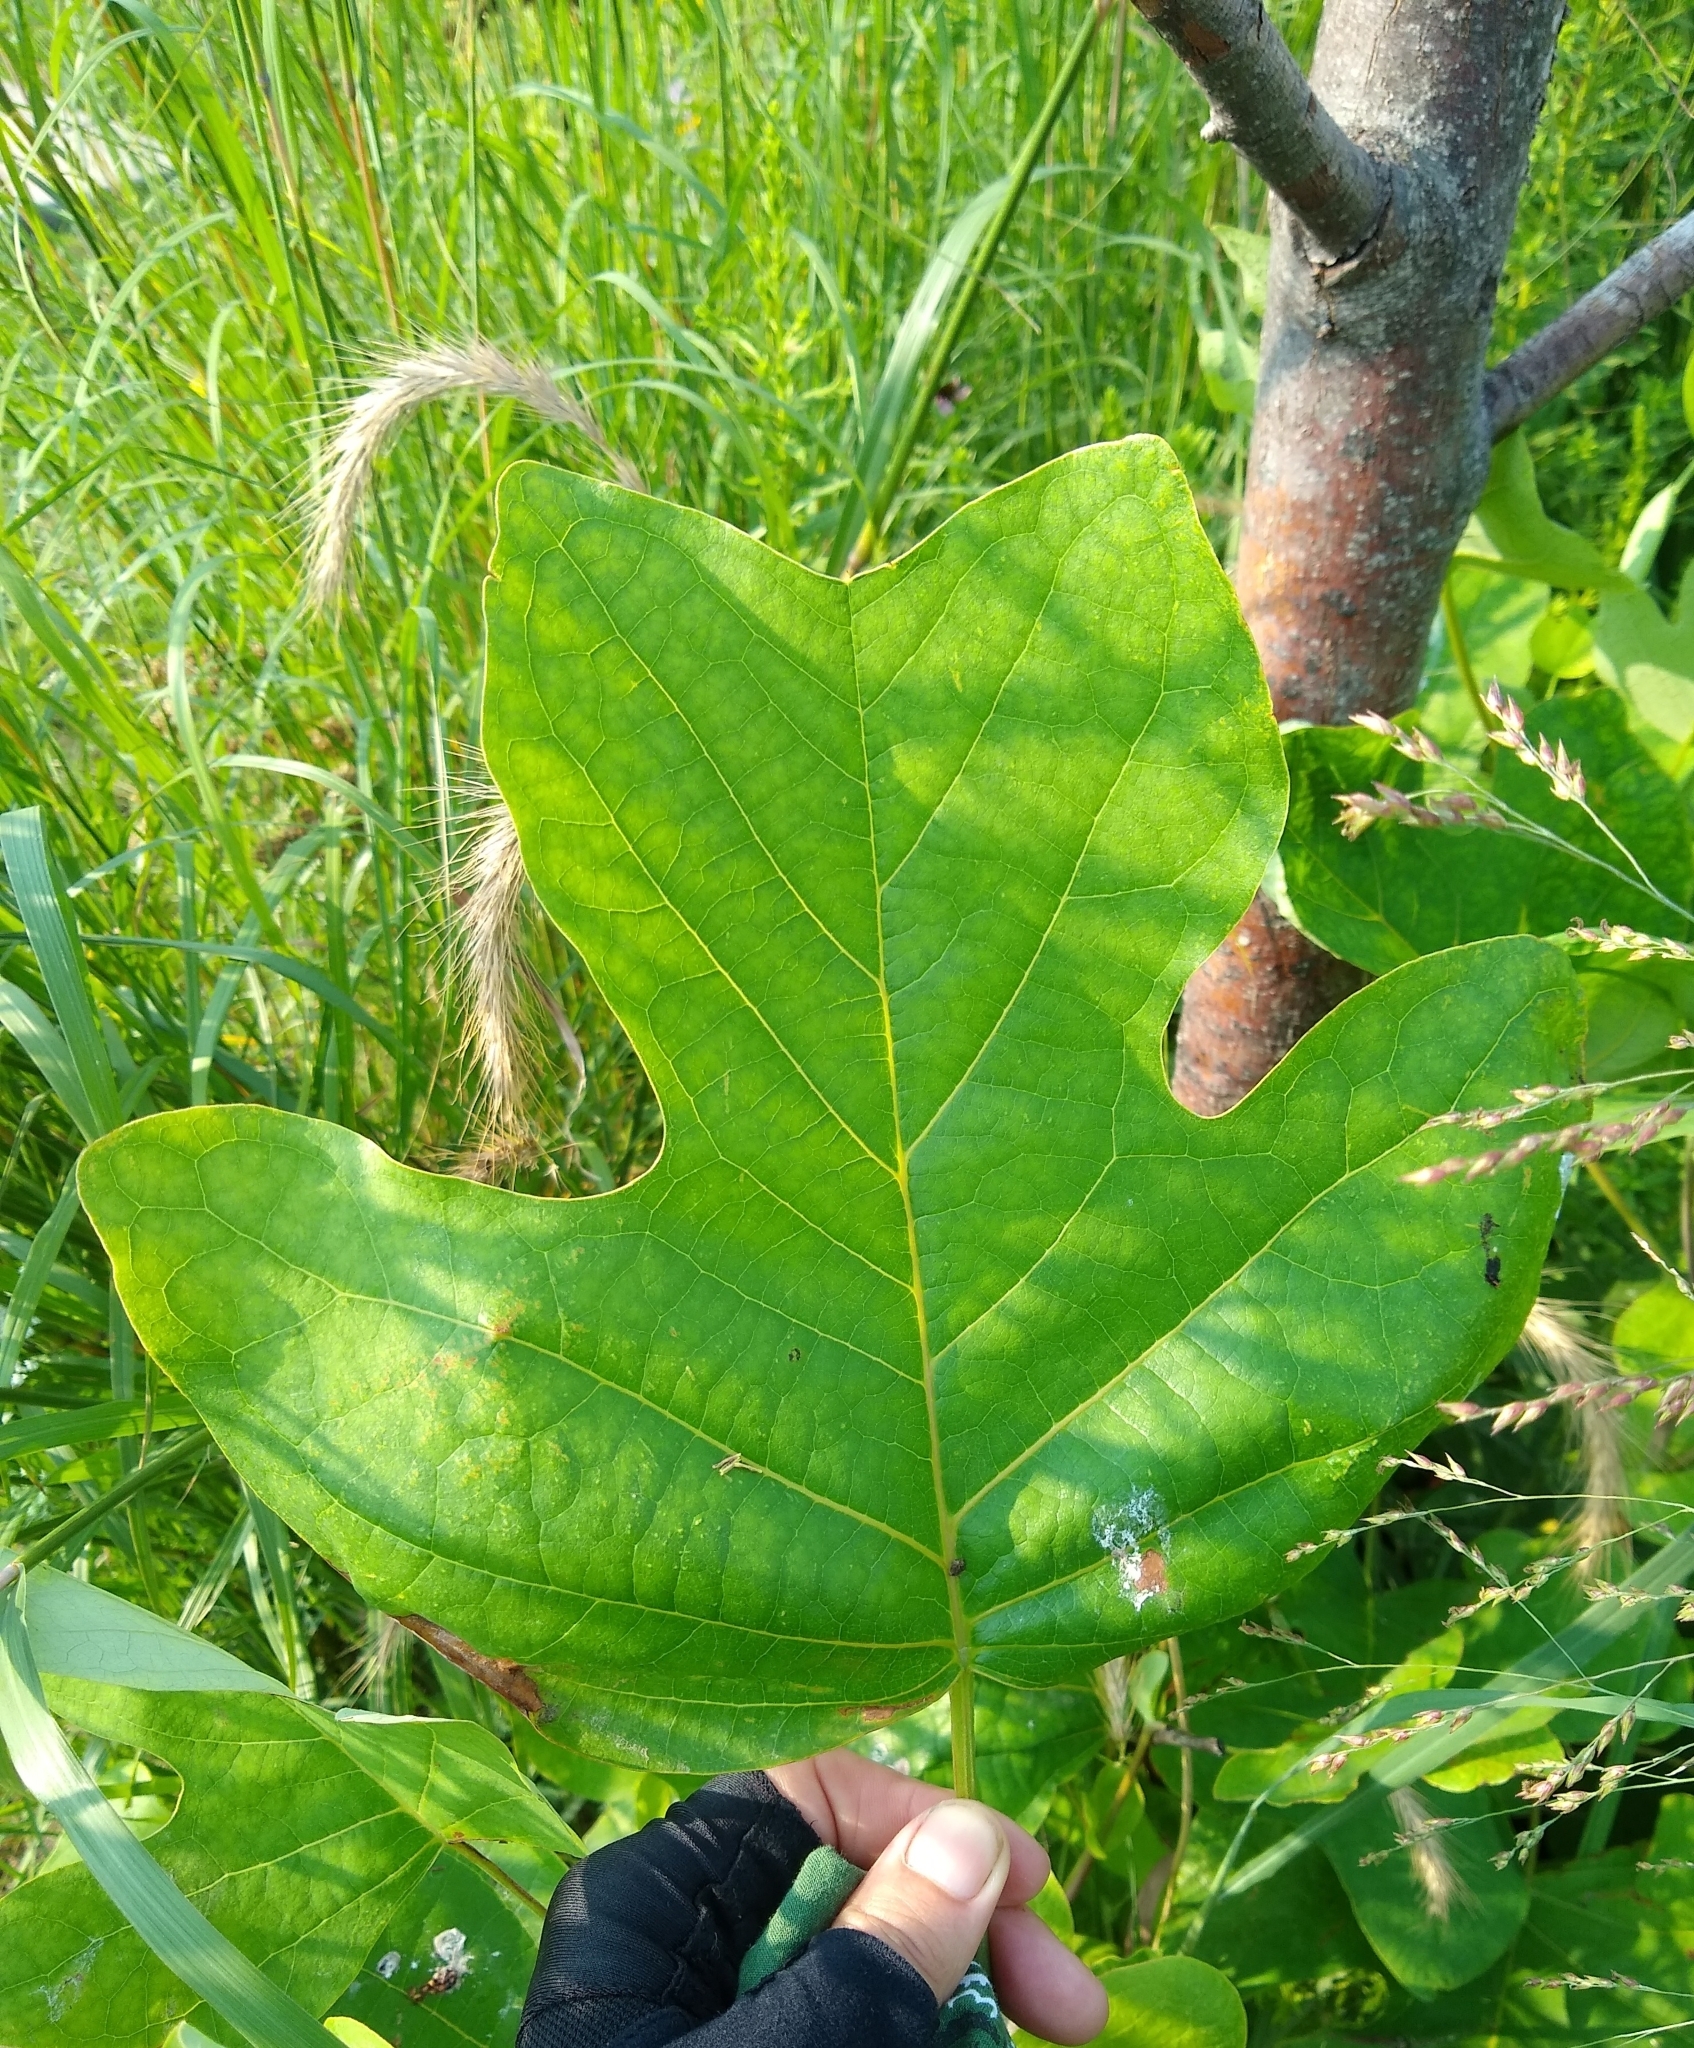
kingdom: Plantae
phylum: Tracheophyta
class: Magnoliopsida
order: Magnoliales
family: Magnoliaceae
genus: Liriodendron
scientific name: Liriodendron tulipifera
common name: Tulip tree
